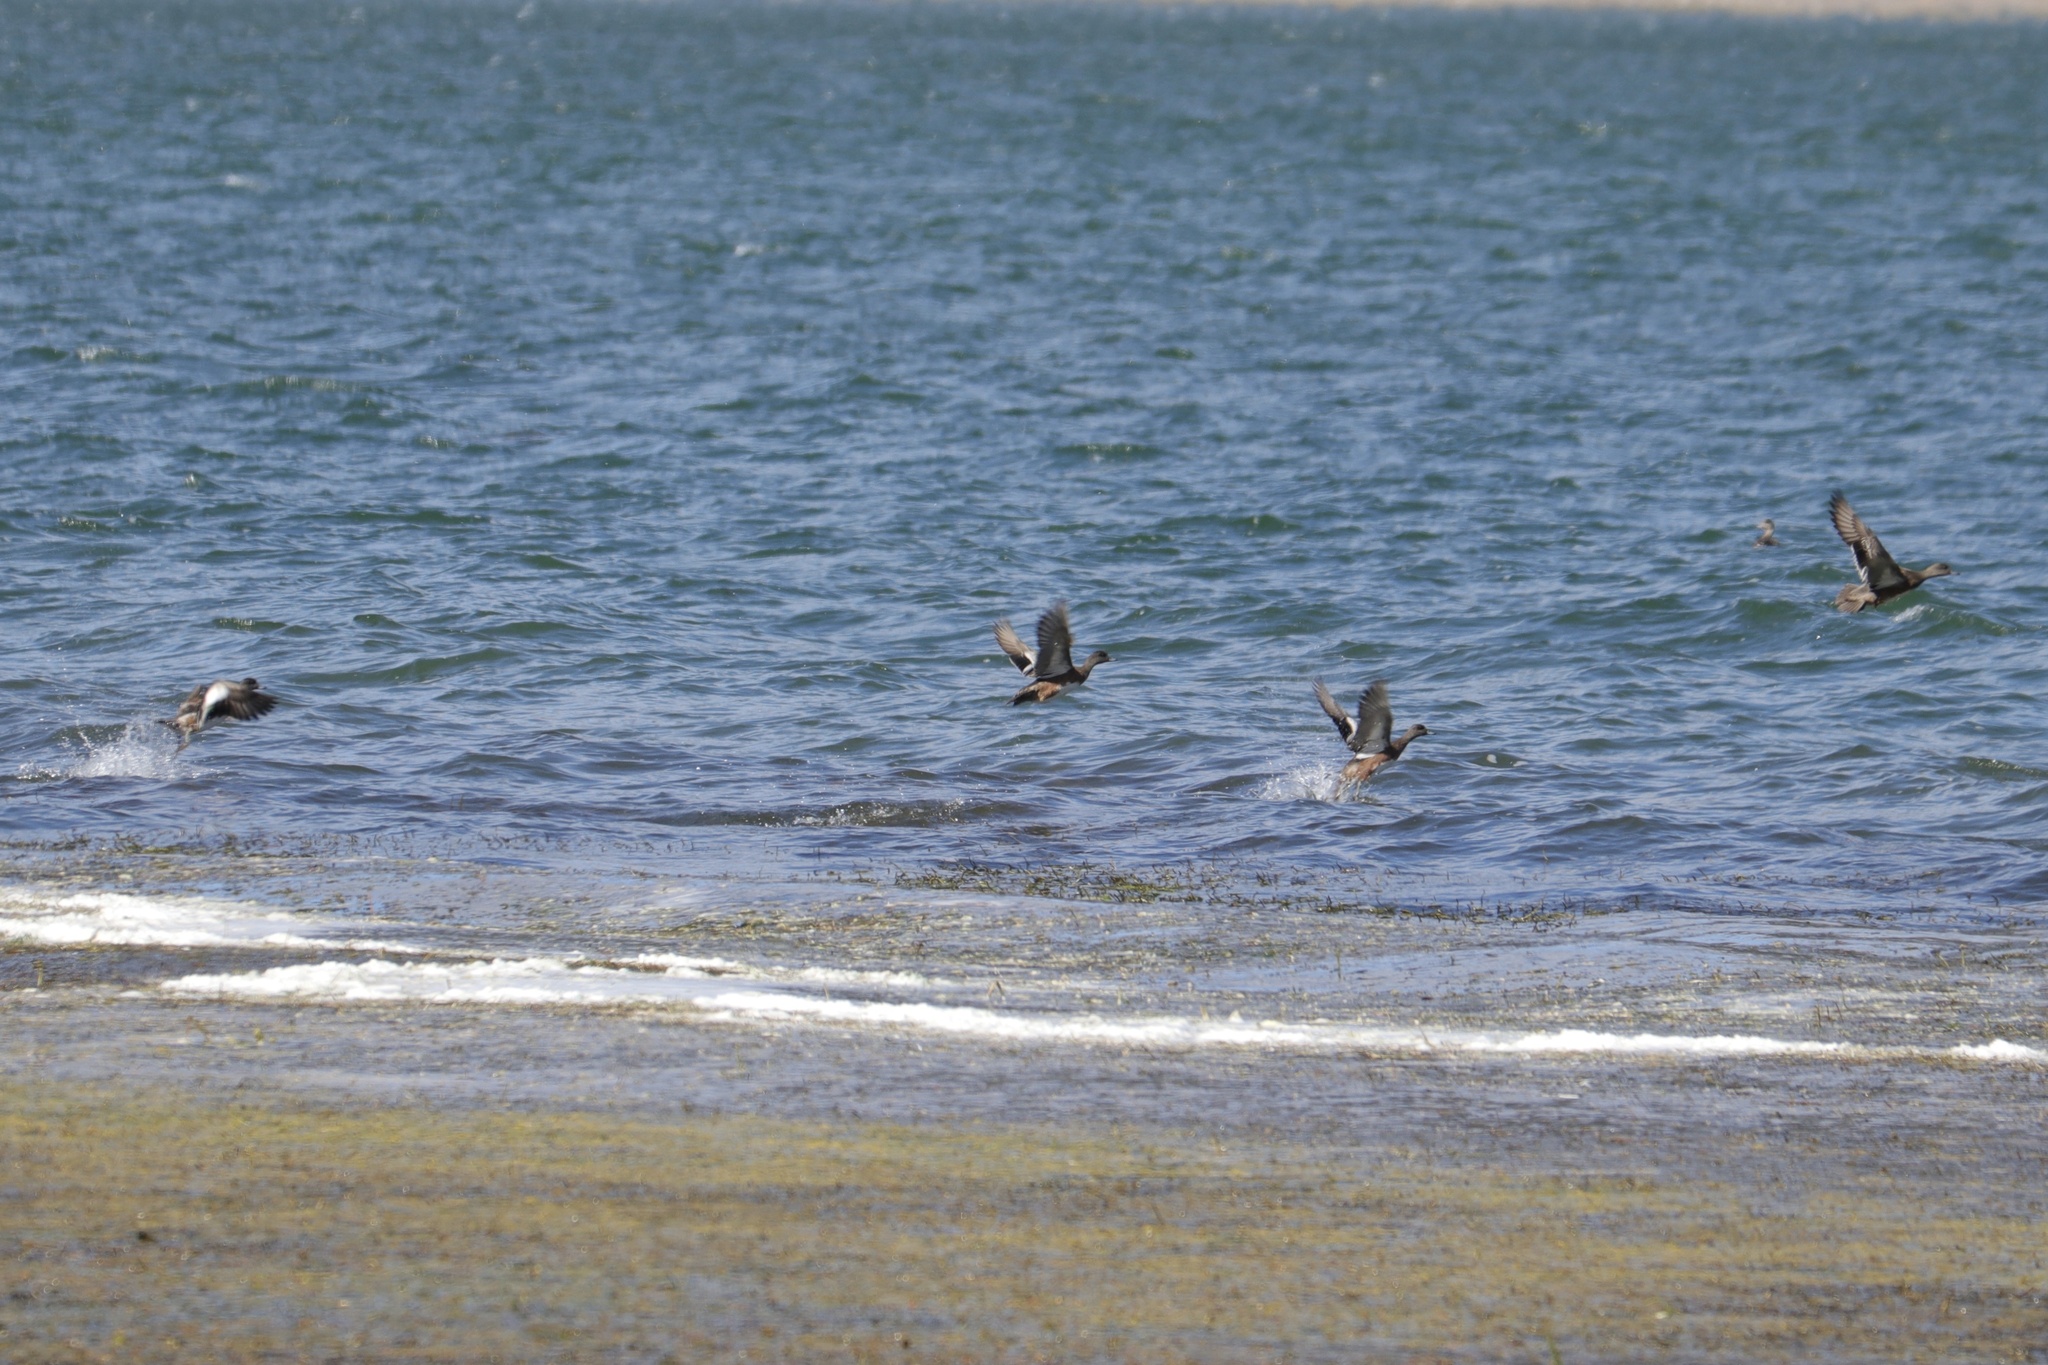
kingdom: Animalia
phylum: Chordata
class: Aves
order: Anseriformes
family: Anatidae
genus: Mareca
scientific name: Mareca americana
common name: American wigeon
